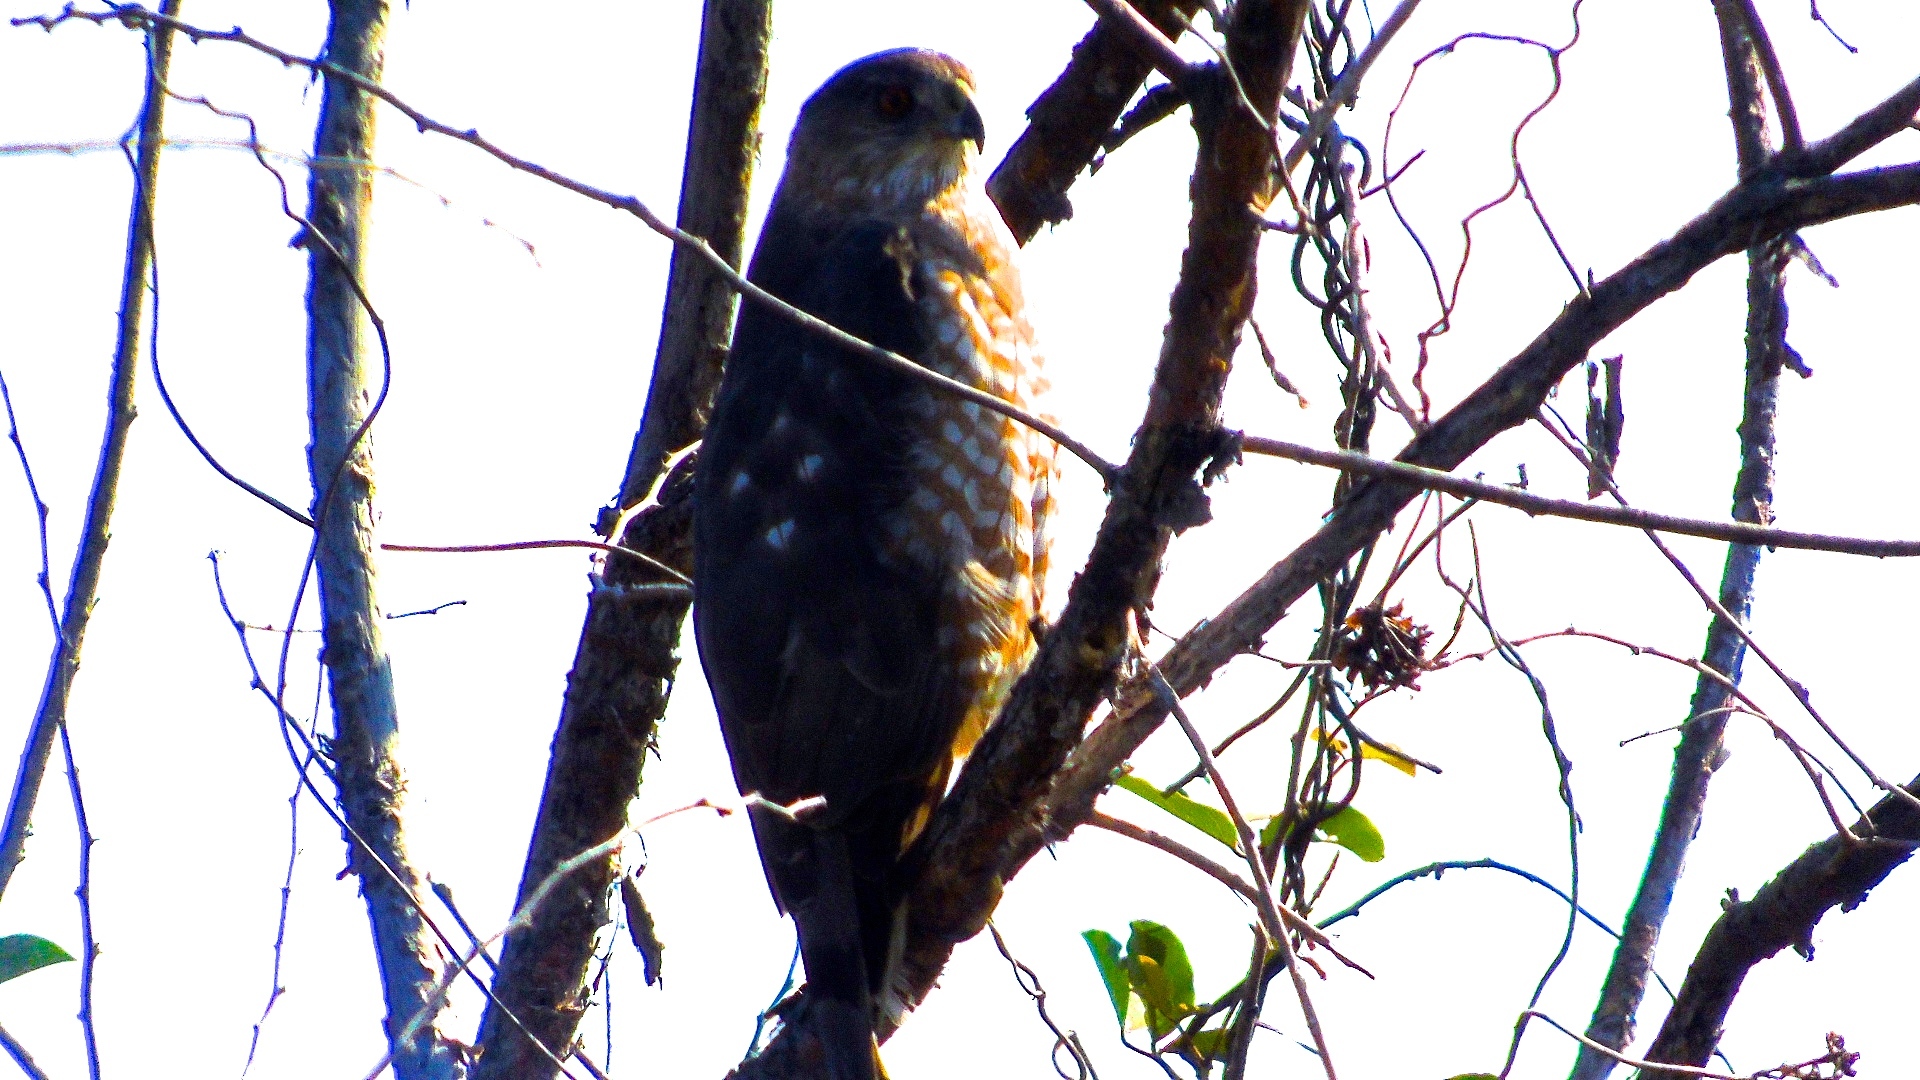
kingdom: Animalia
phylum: Chordata
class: Aves
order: Accipitriformes
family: Accipitridae
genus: Accipiter
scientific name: Accipiter cooperii
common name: Cooper's hawk
